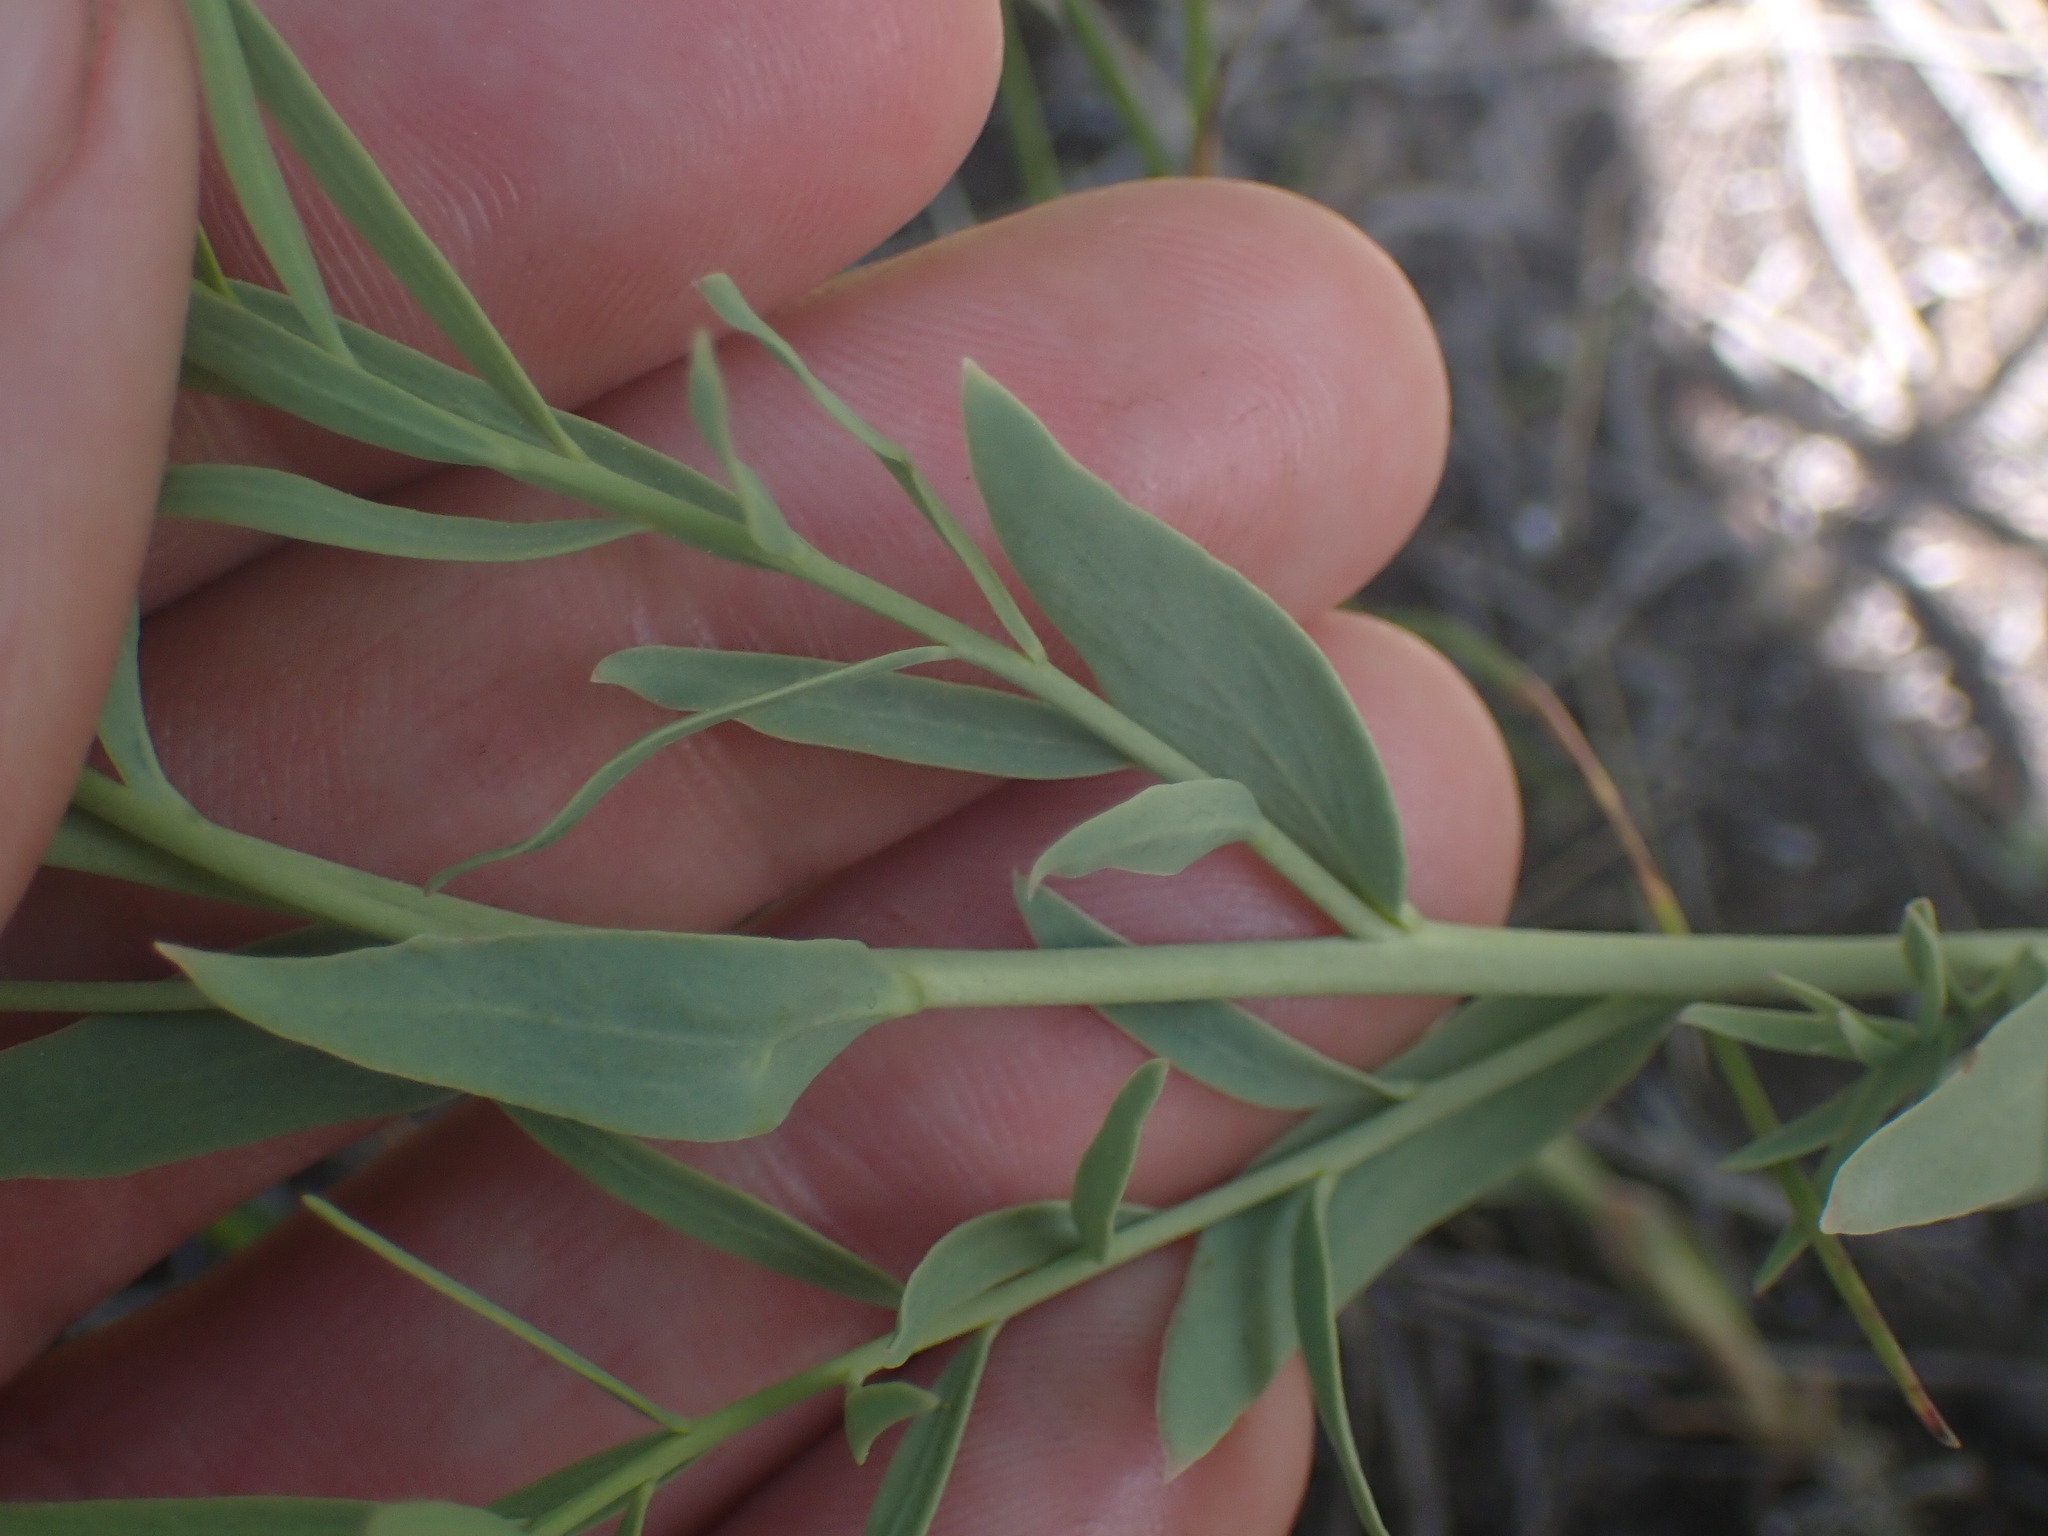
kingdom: Plantae
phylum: Tracheophyta
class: Magnoliopsida
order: Santalales
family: Comandraceae
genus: Comandra
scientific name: Comandra umbellata
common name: Bastard toadflax
